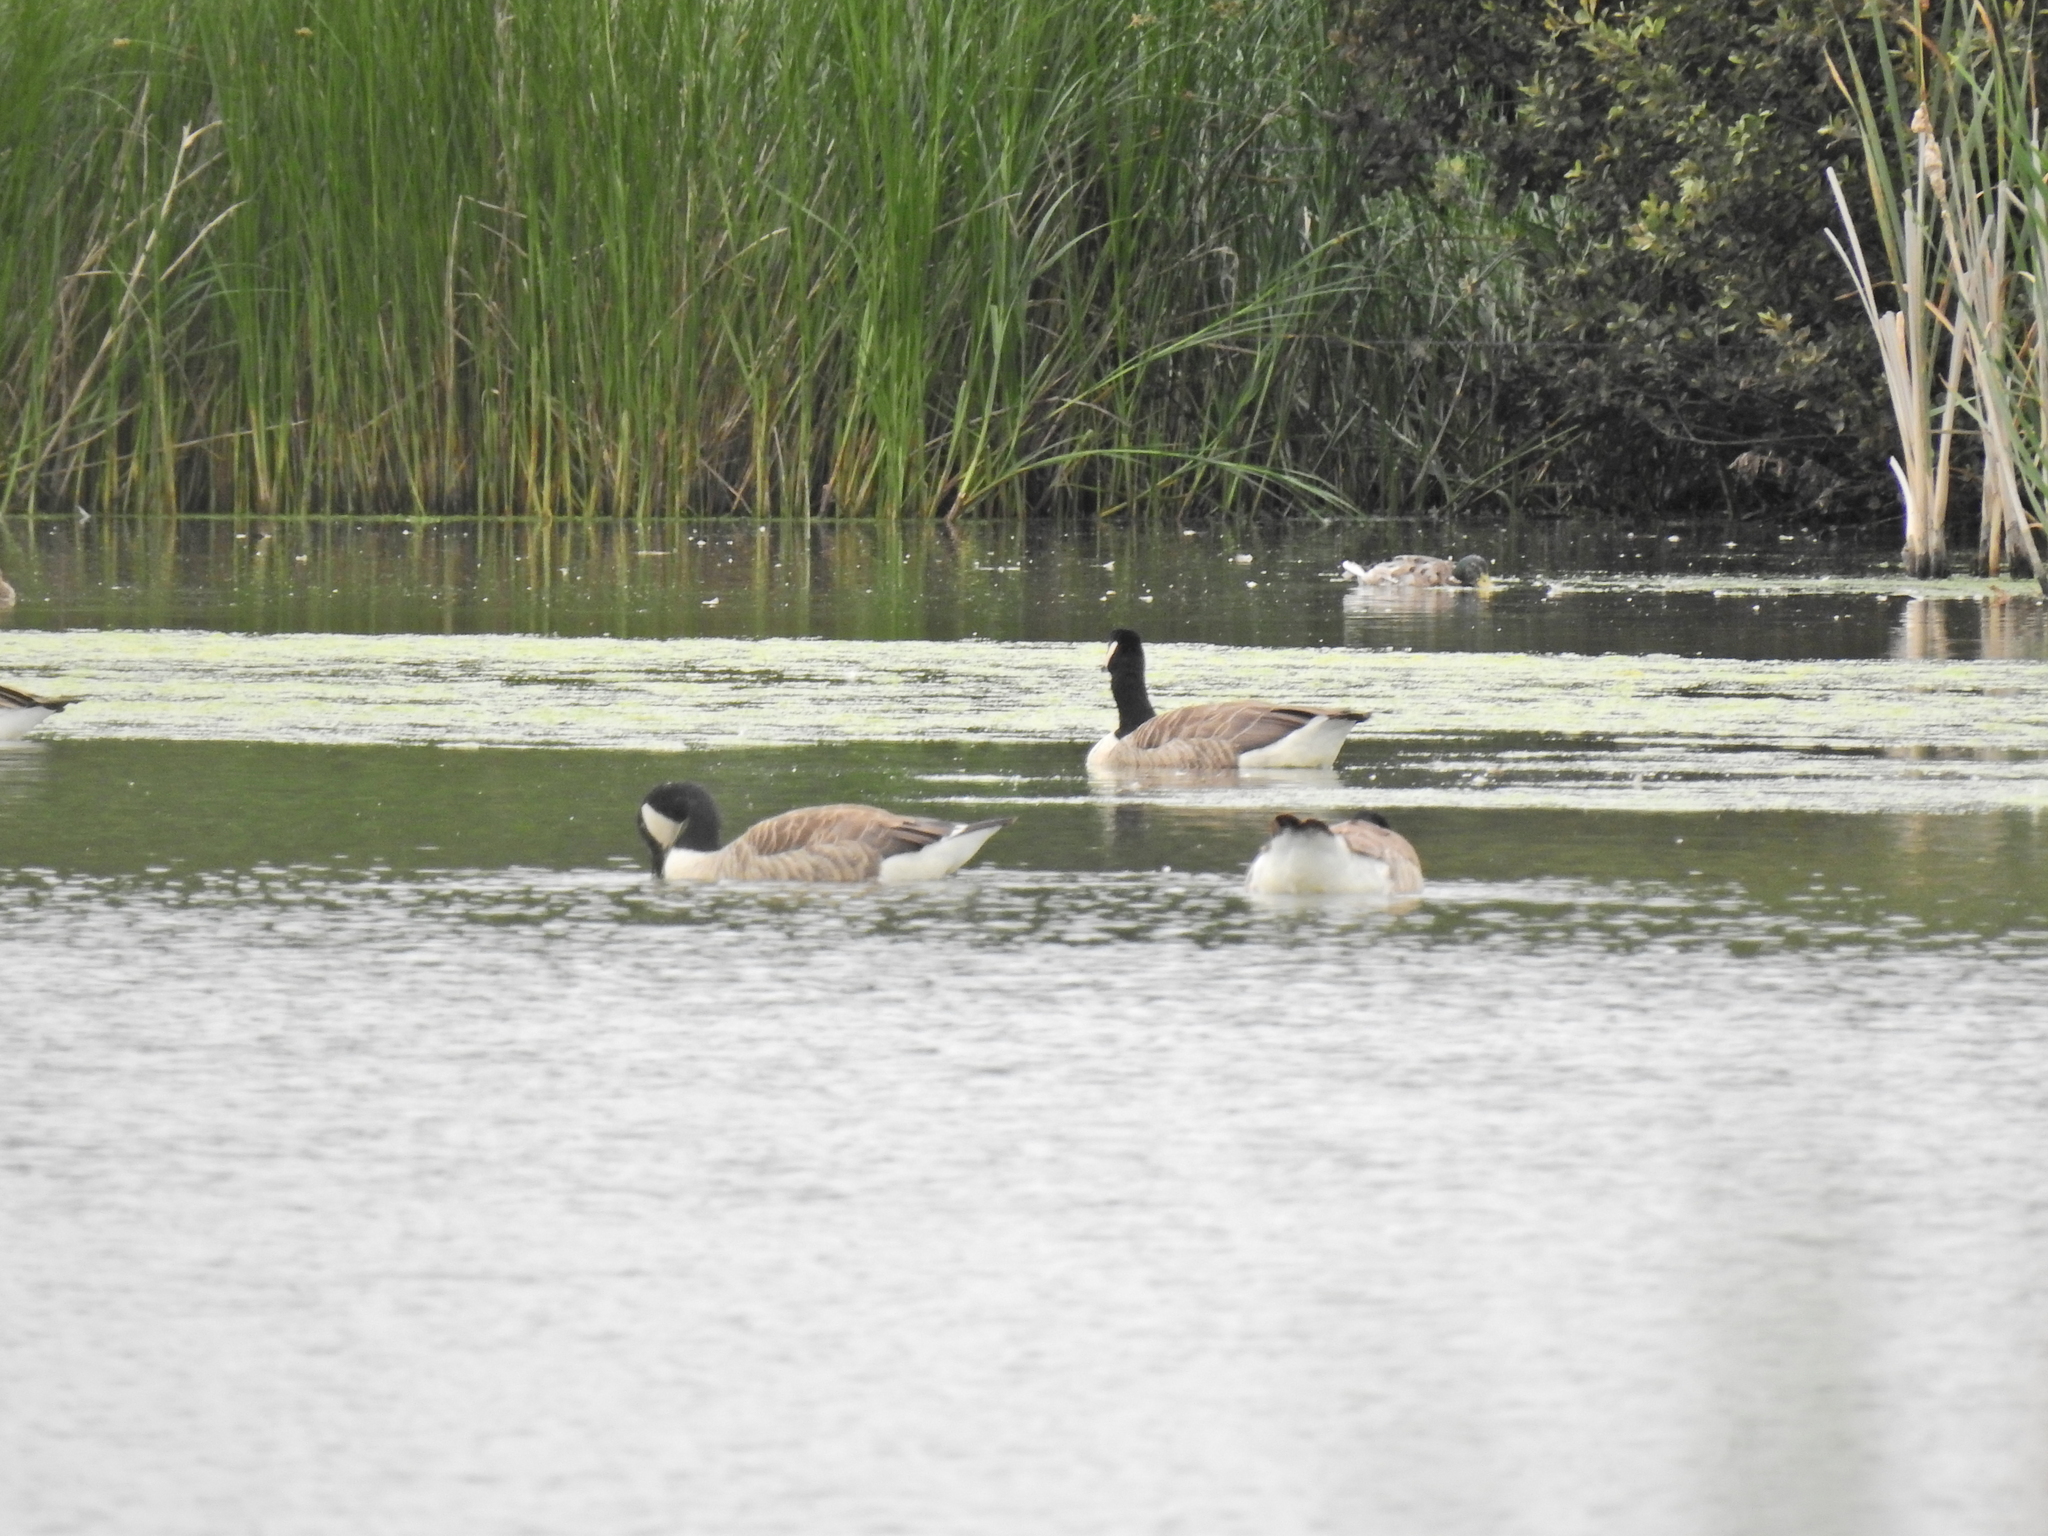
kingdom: Animalia
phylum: Chordata
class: Aves
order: Anseriformes
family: Anatidae
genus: Branta
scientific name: Branta canadensis
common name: Canada goose
